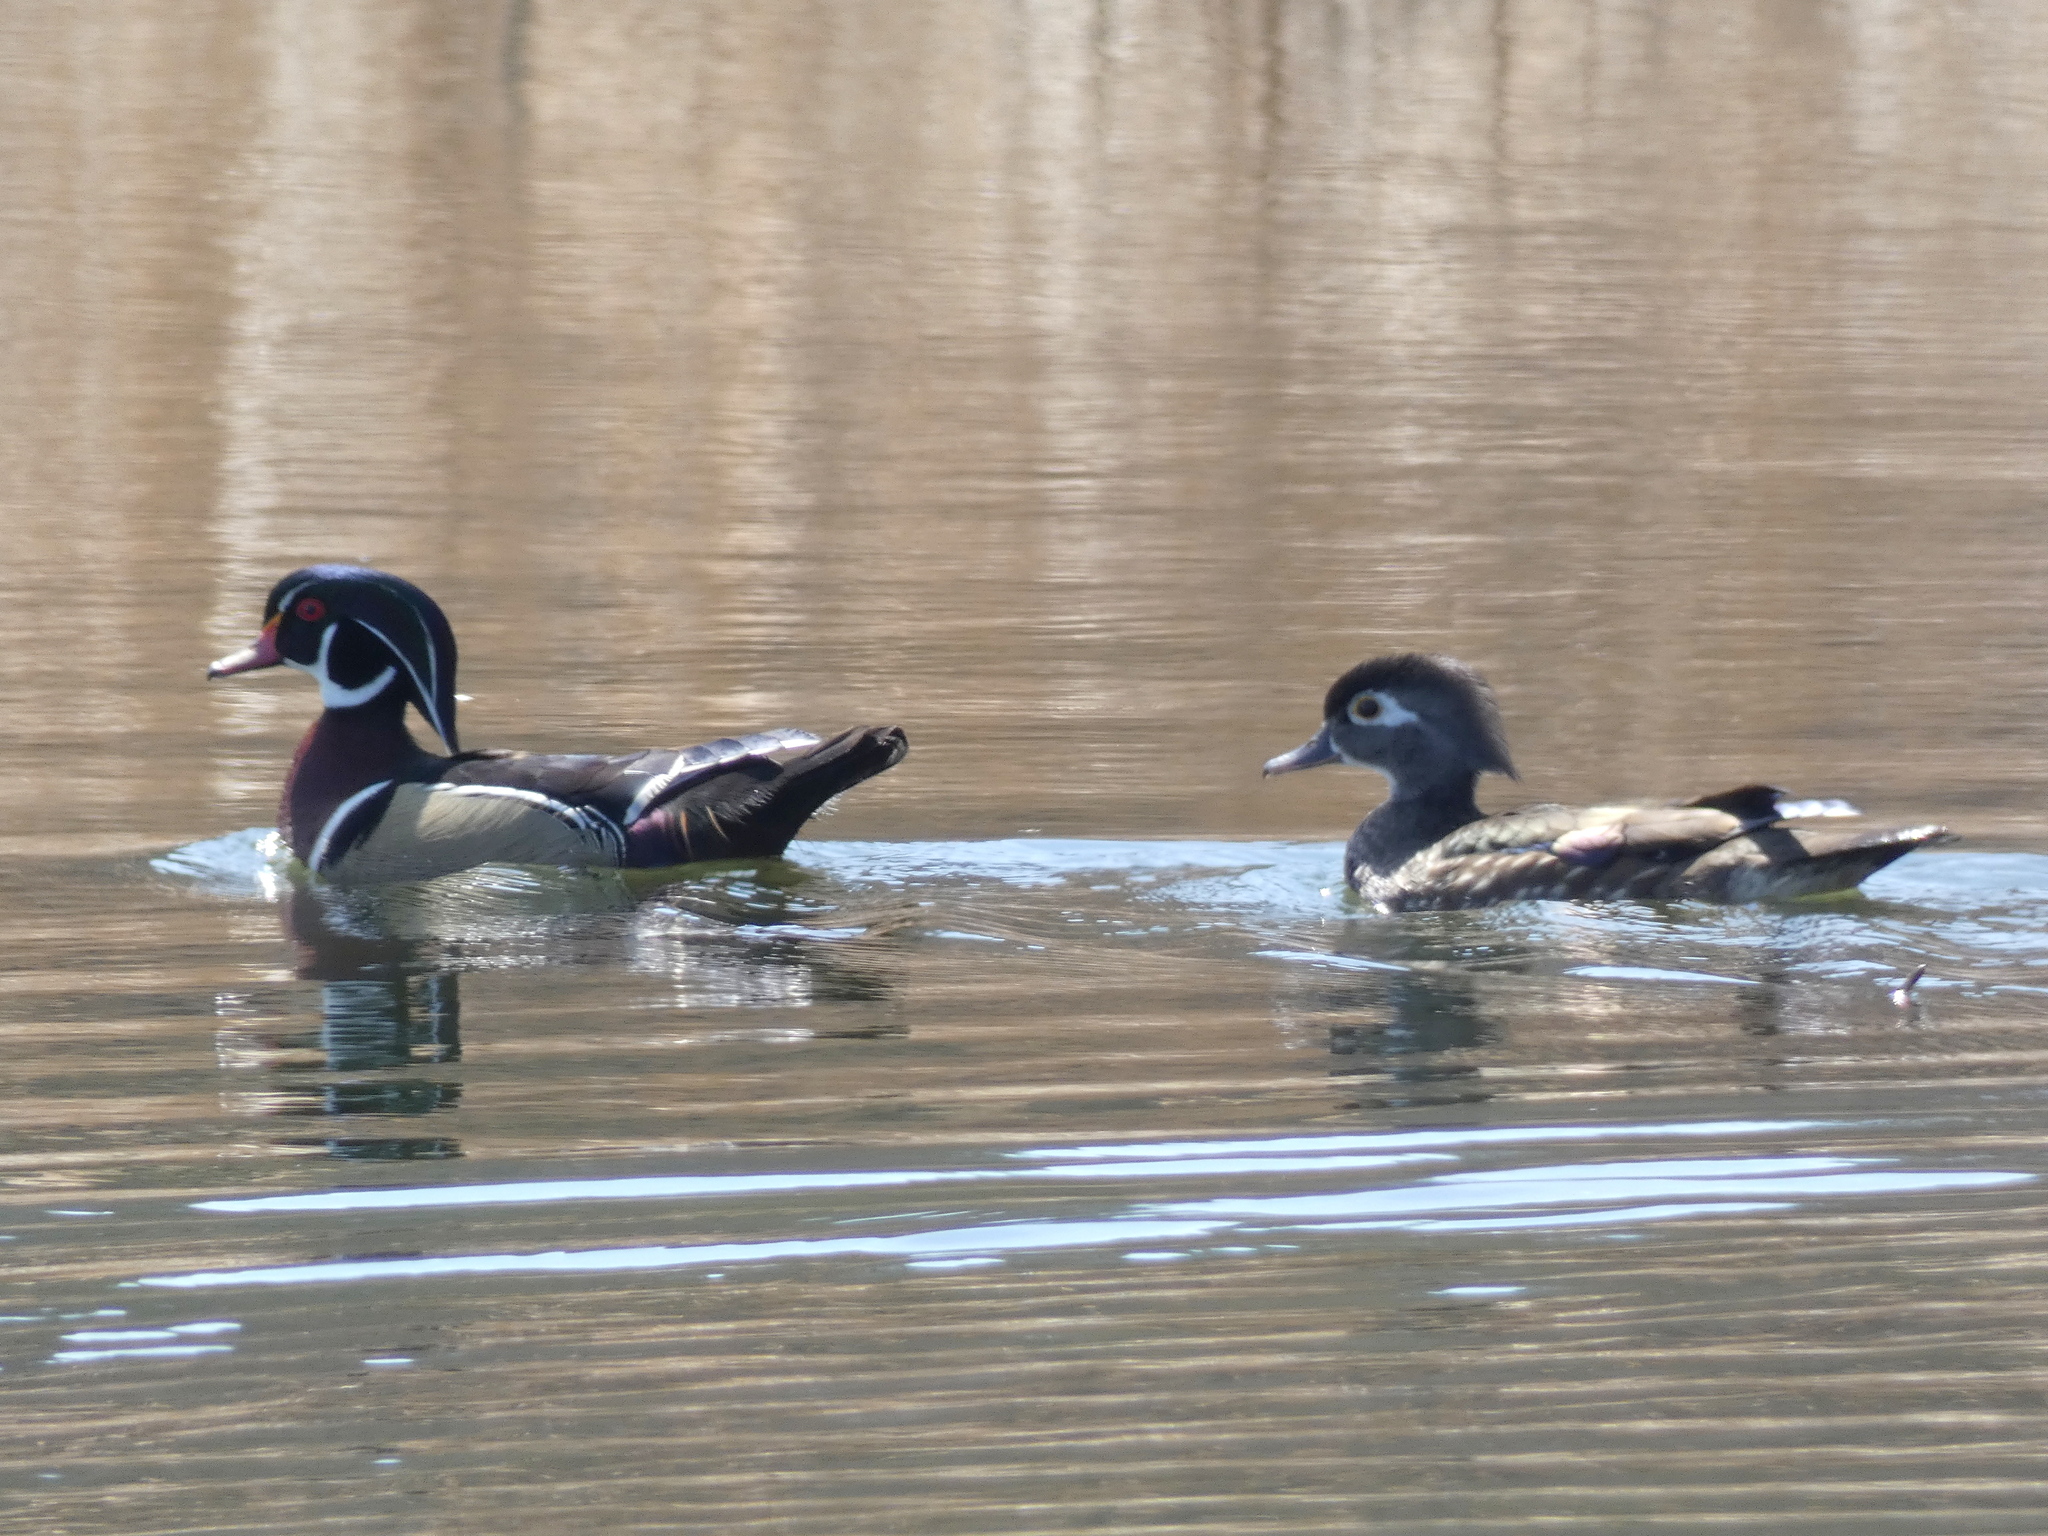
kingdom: Animalia
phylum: Chordata
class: Aves
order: Anseriformes
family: Anatidae
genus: Aix
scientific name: Aix sponsa
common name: Wood duck
